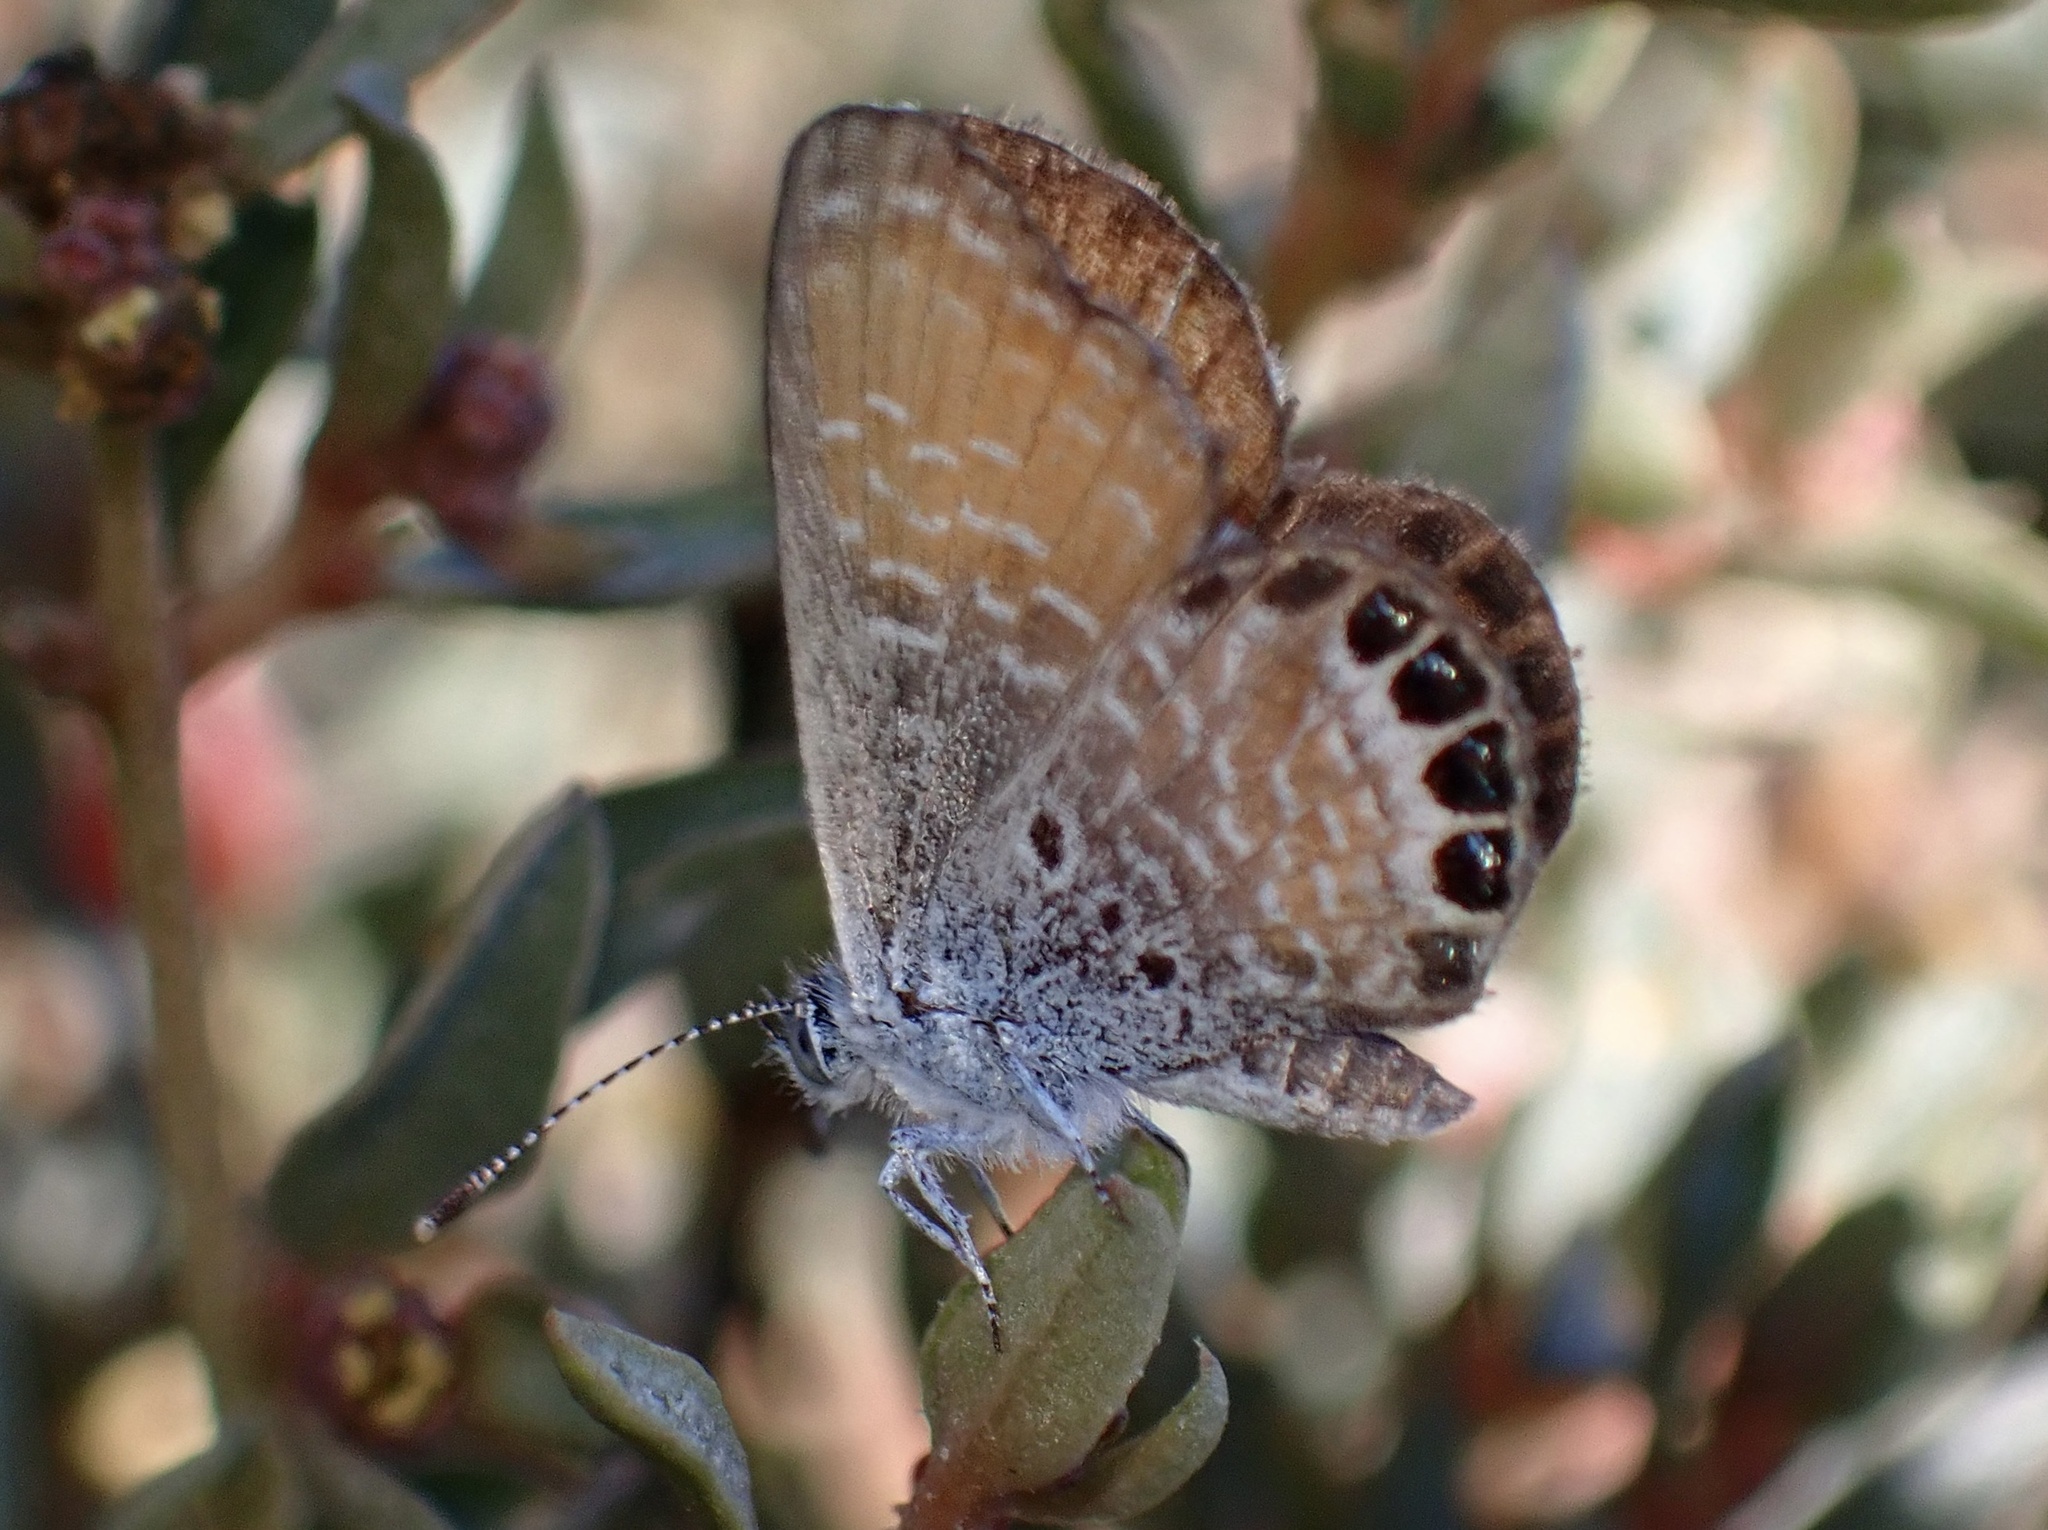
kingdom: Animalia
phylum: Arthropoda
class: Insecta
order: Lepidoptera
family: Lycaenidae
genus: Brephidium
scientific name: Brephidium exilis
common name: Pygmy blue
